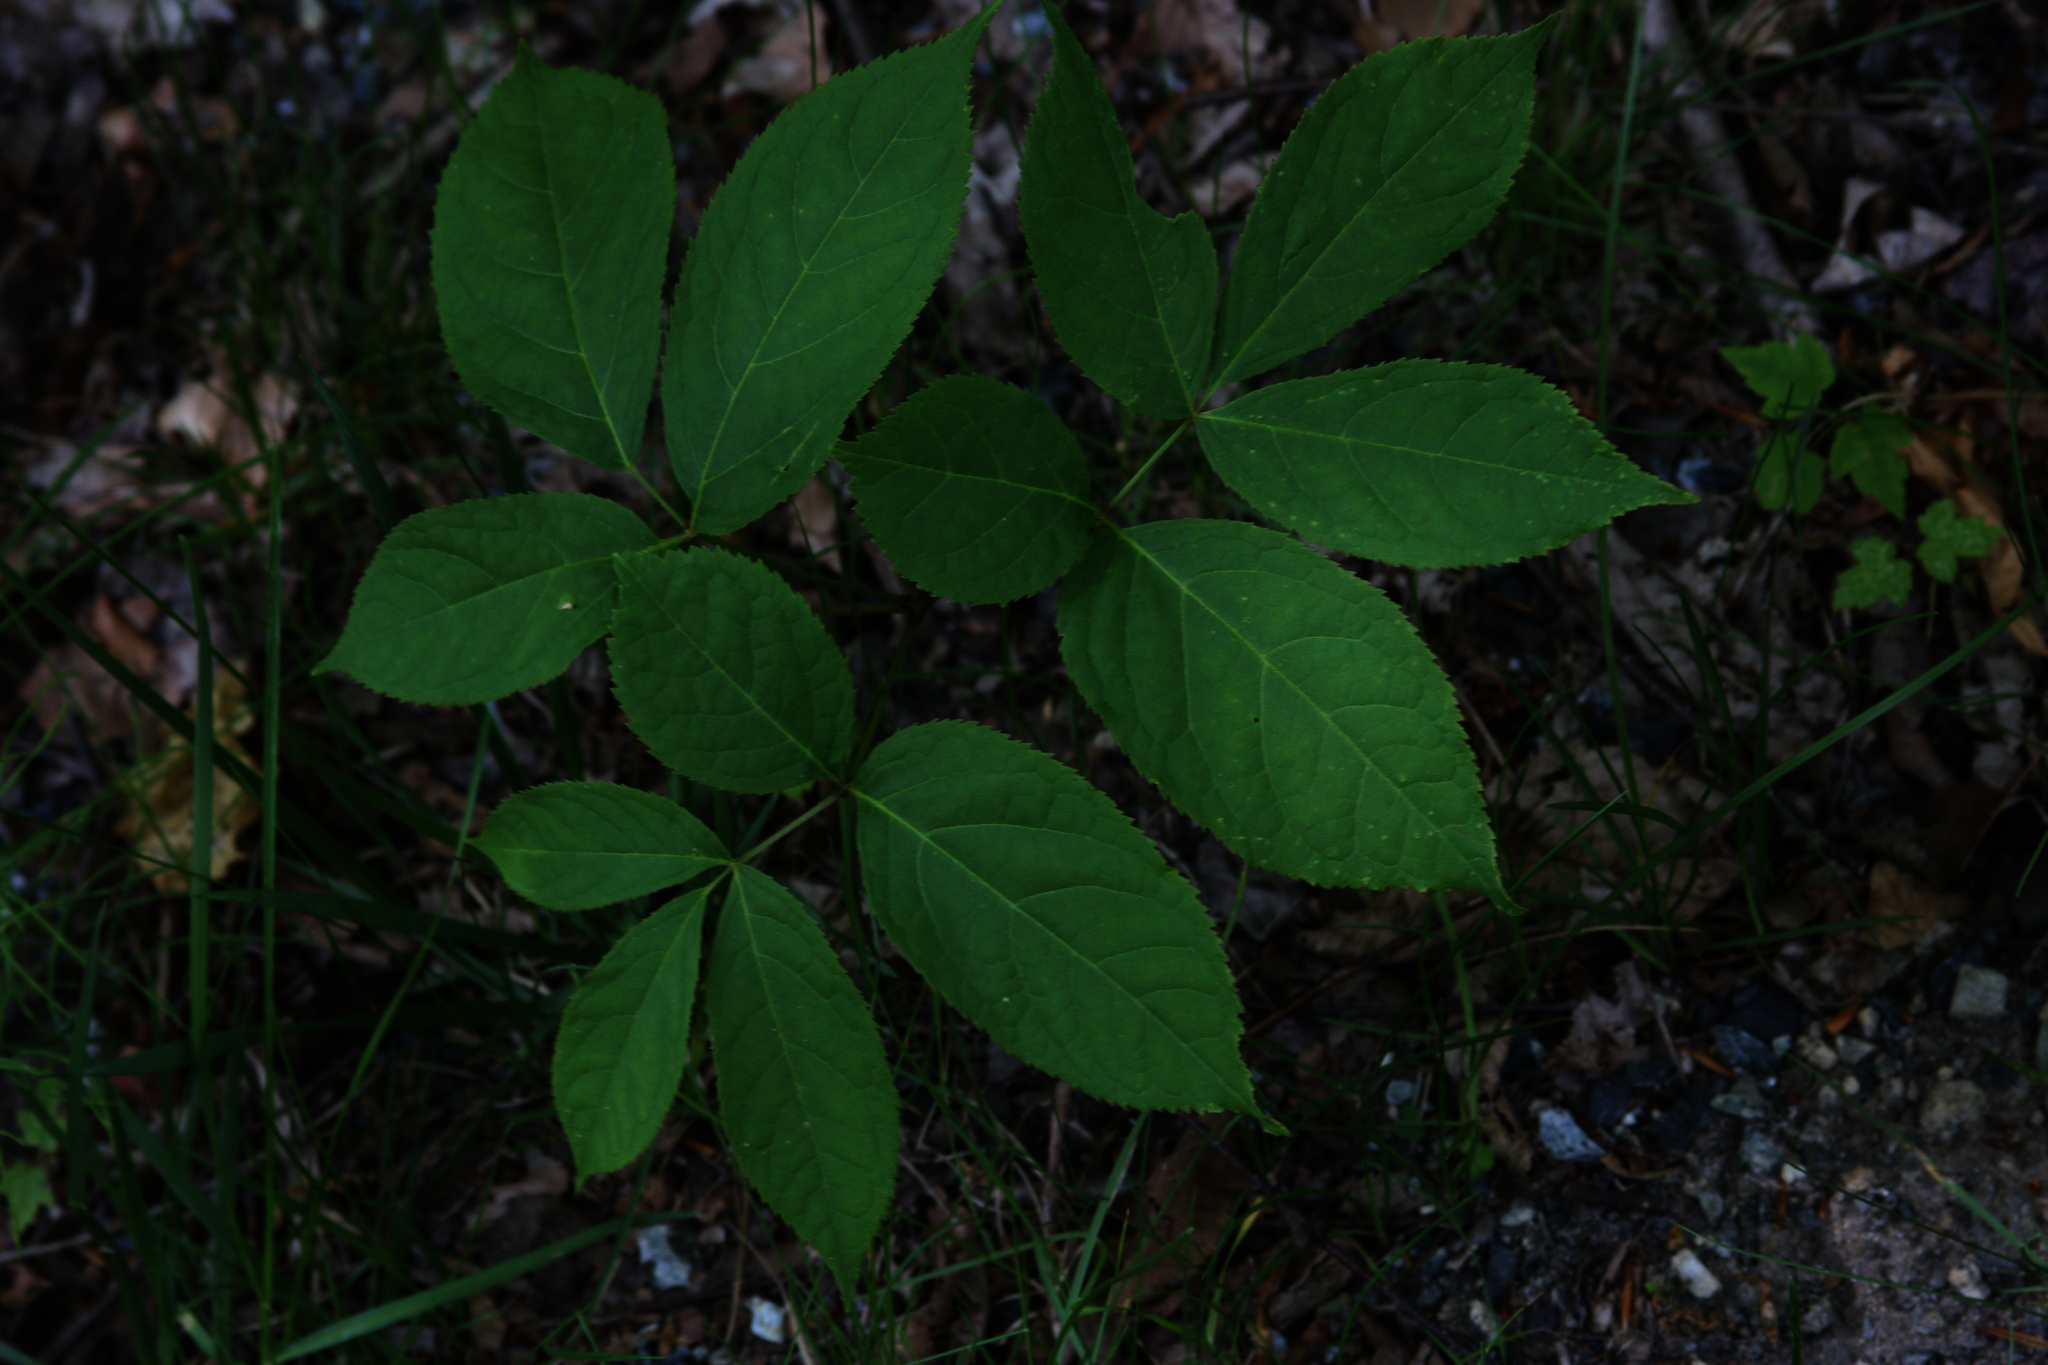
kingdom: Plantae
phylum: Tracheophyta
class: Magnoliopsida
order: Apiales
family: Araliaceae
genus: Aralia
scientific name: Aralia nudicaulis
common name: Wild sarsaparilla
